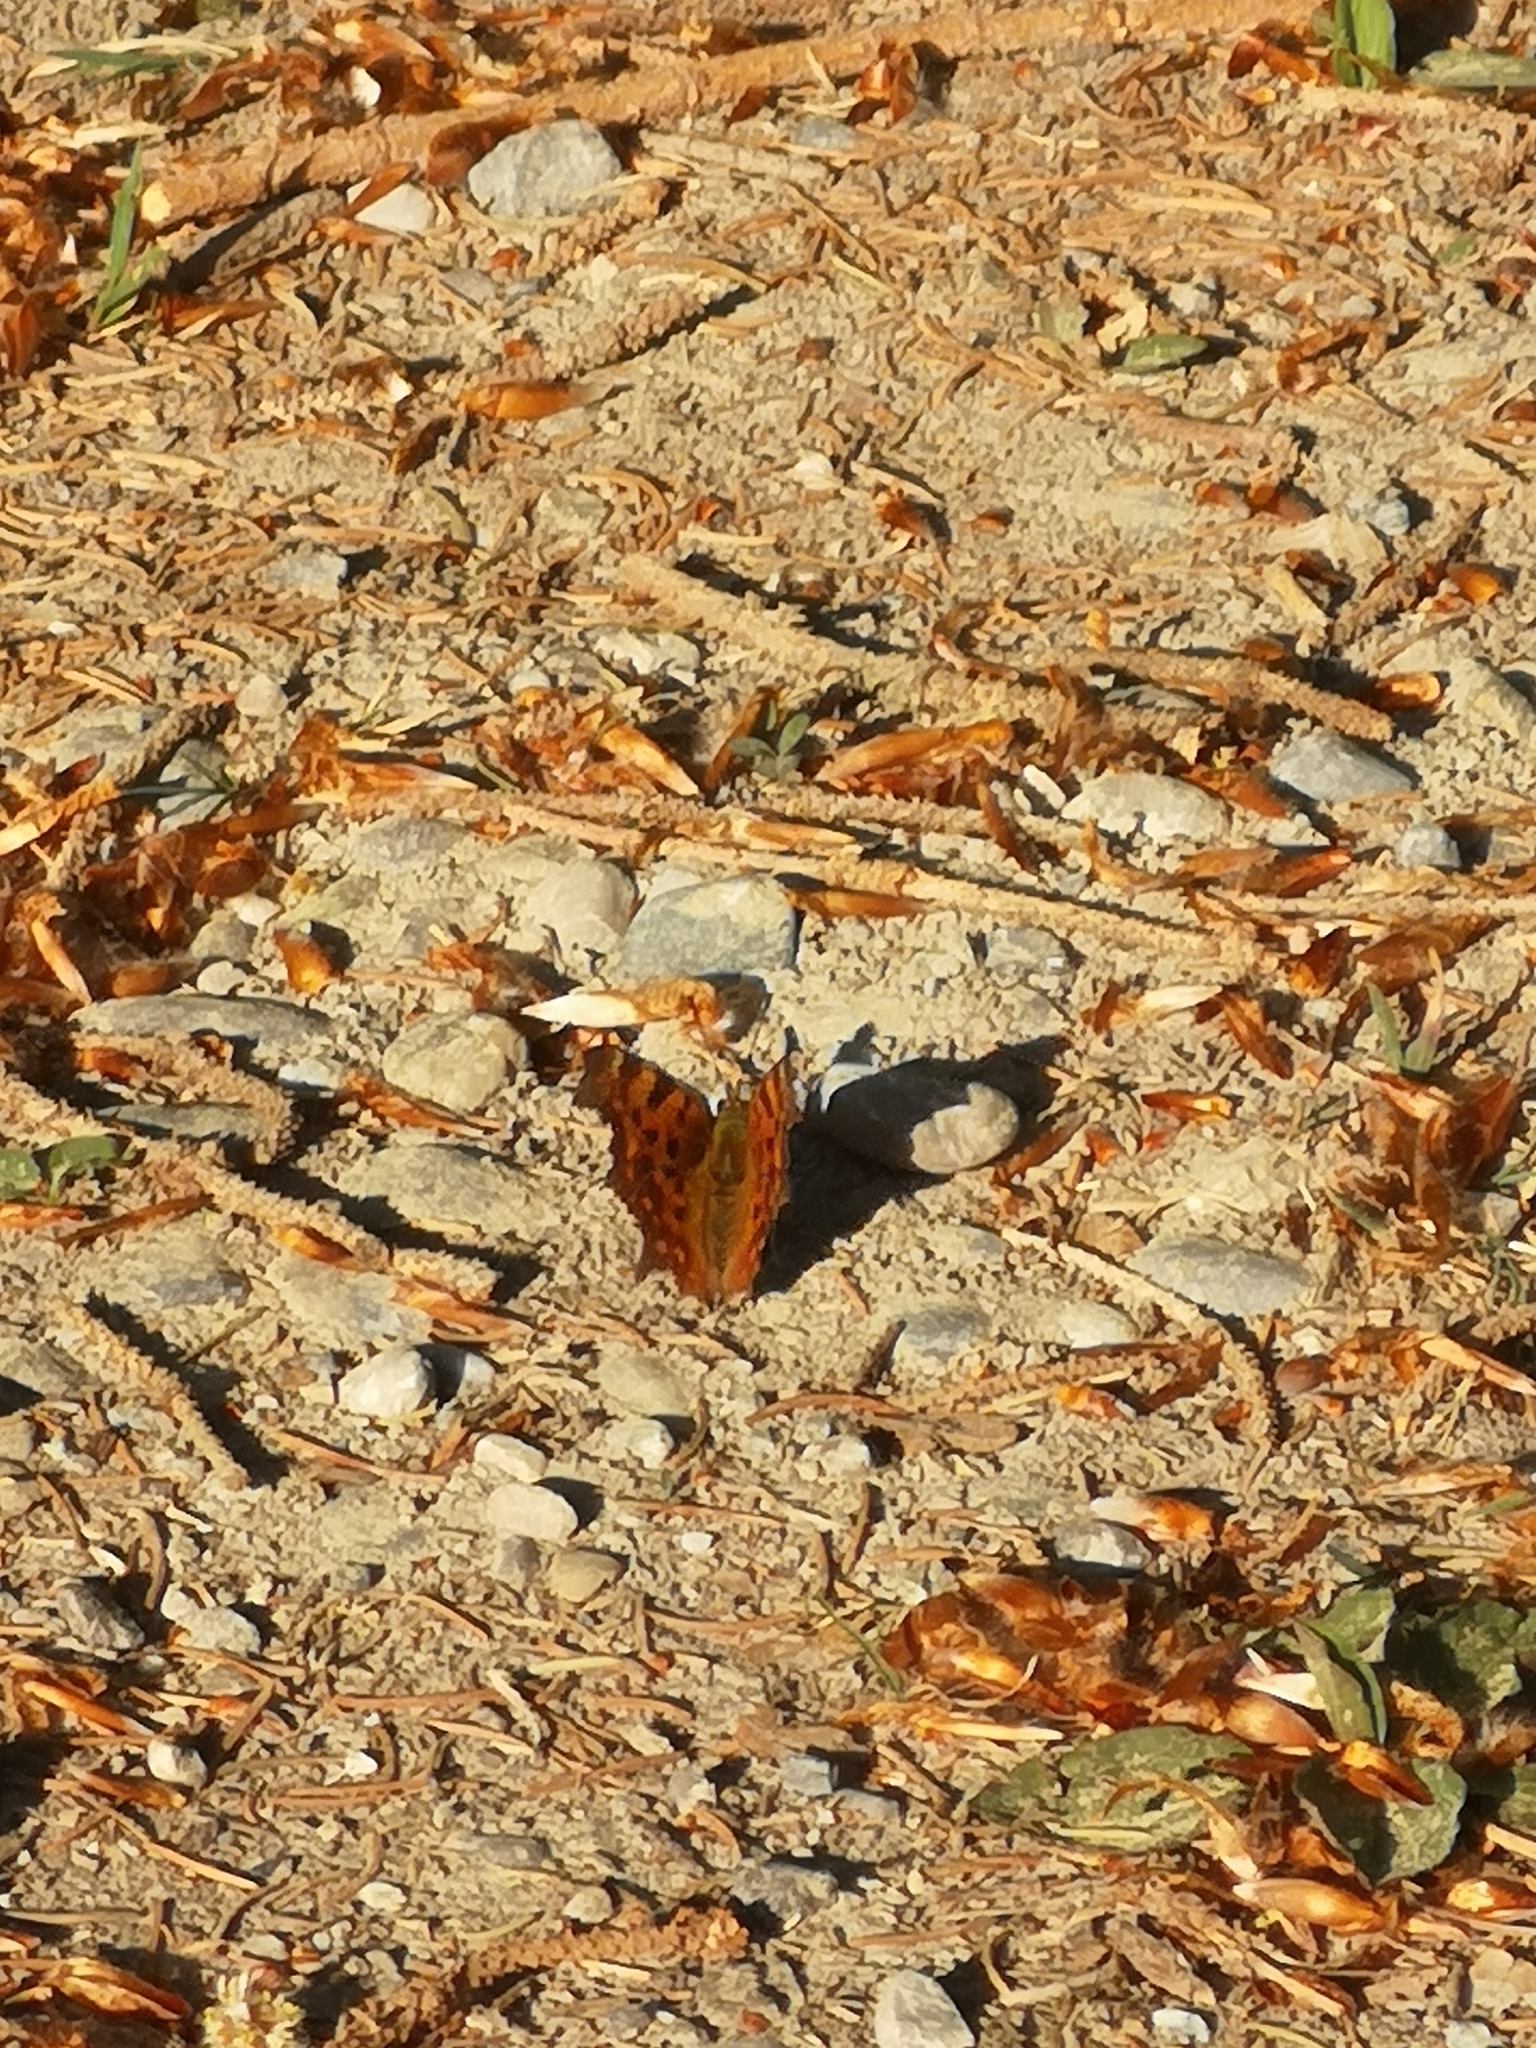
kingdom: Animalia
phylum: Arthropoda
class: Insecta
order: Lepidoptera
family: Nymphalidae
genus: Polygonia
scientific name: Polygonia c-album
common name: Comma
